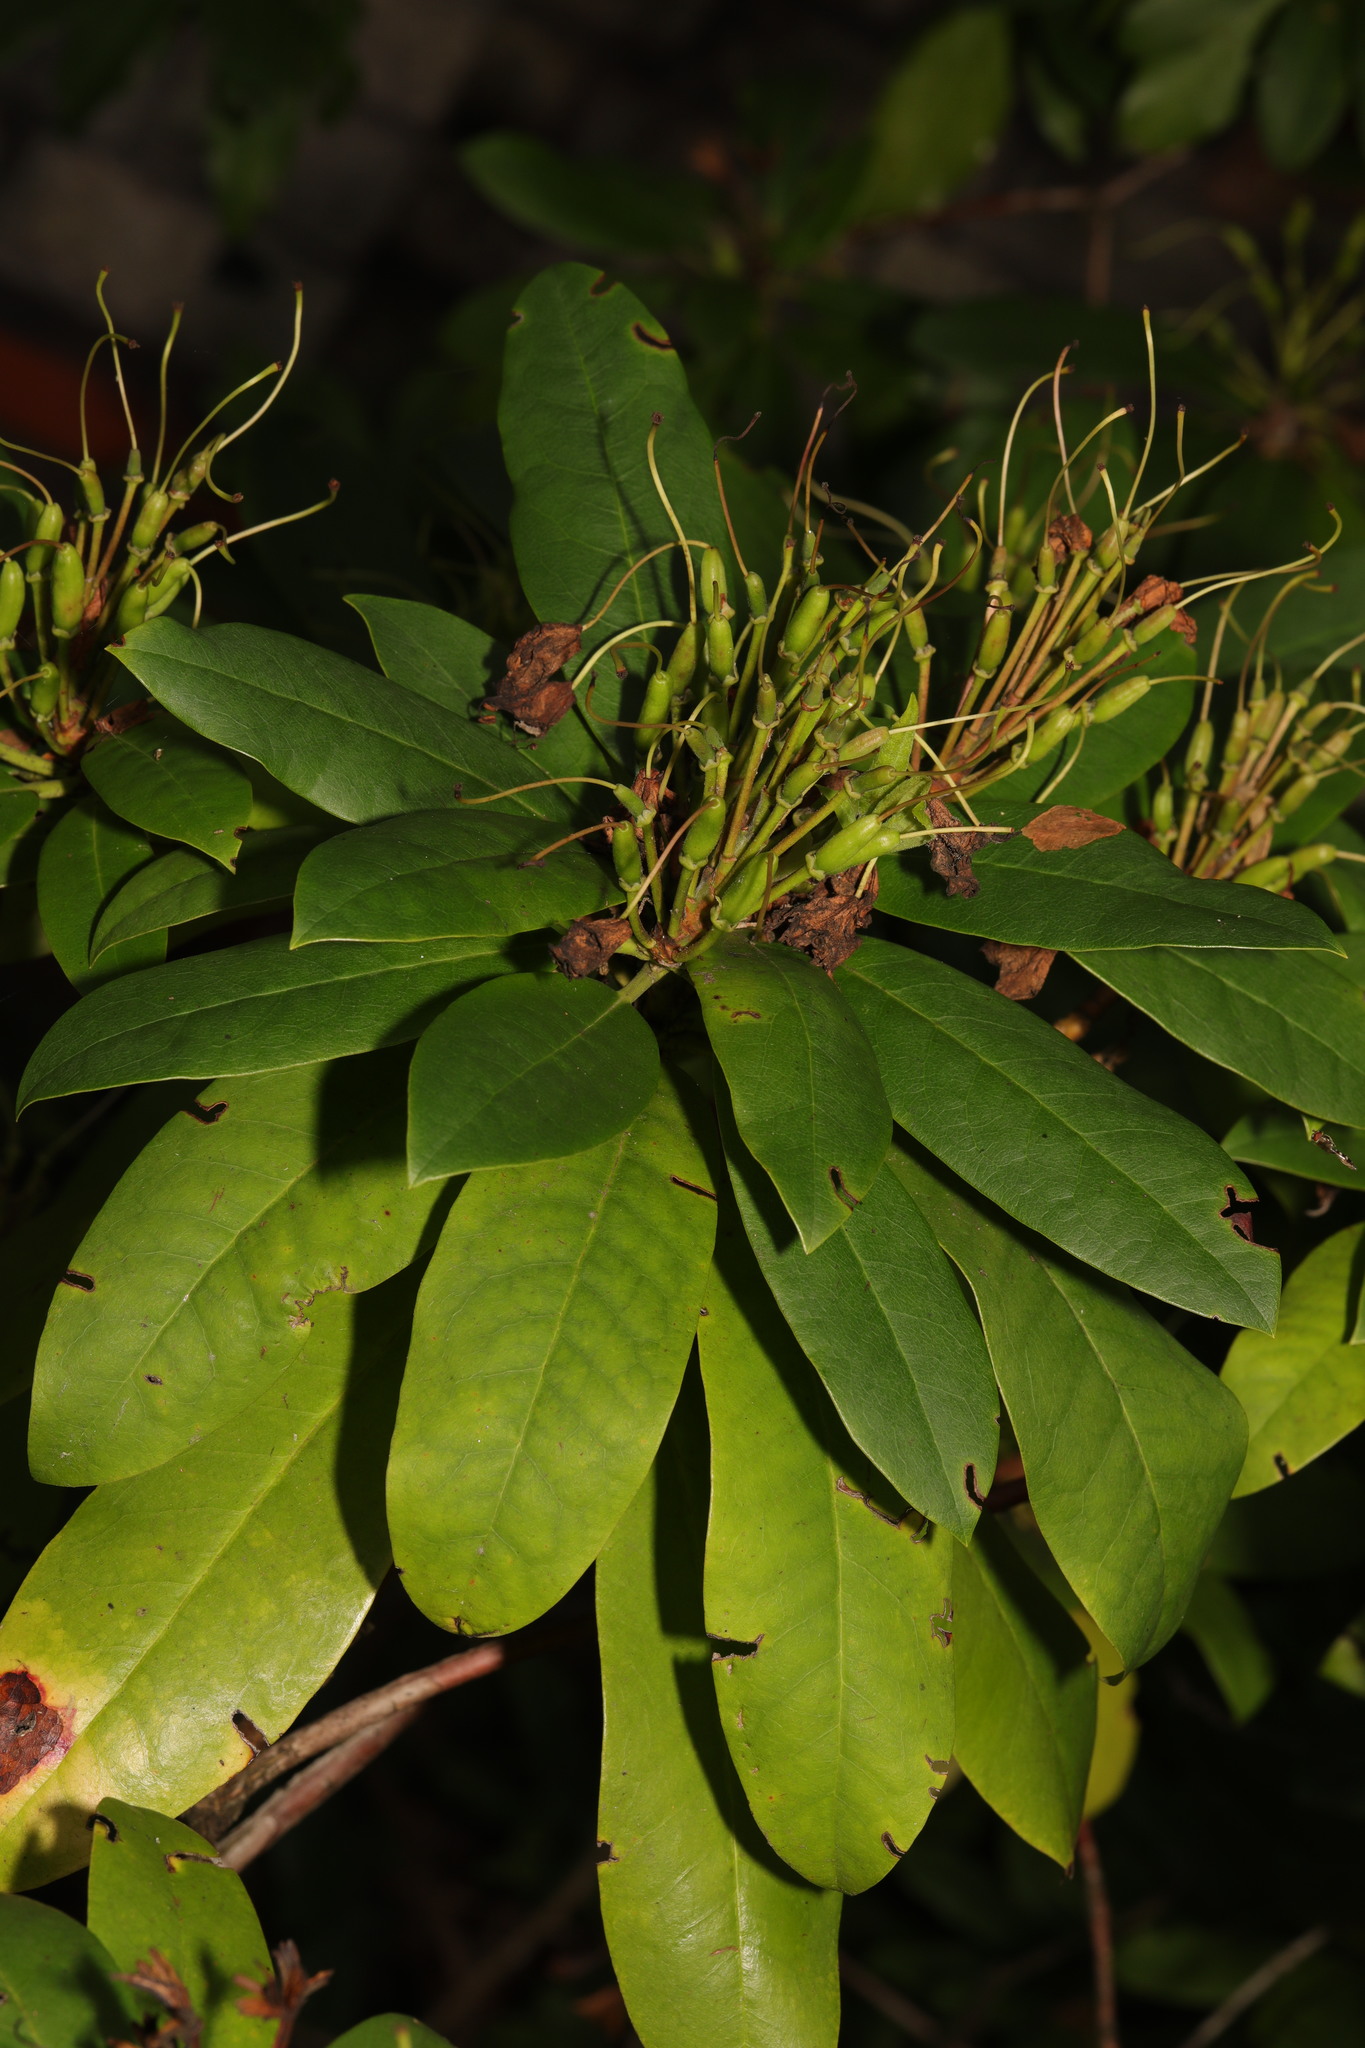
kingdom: Plantae
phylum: Tracheophyta
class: Magnoliopsida
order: Ericales
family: Ericaceae
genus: Rhododendron
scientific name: Rhododendron ponticum
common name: Rhododendron
